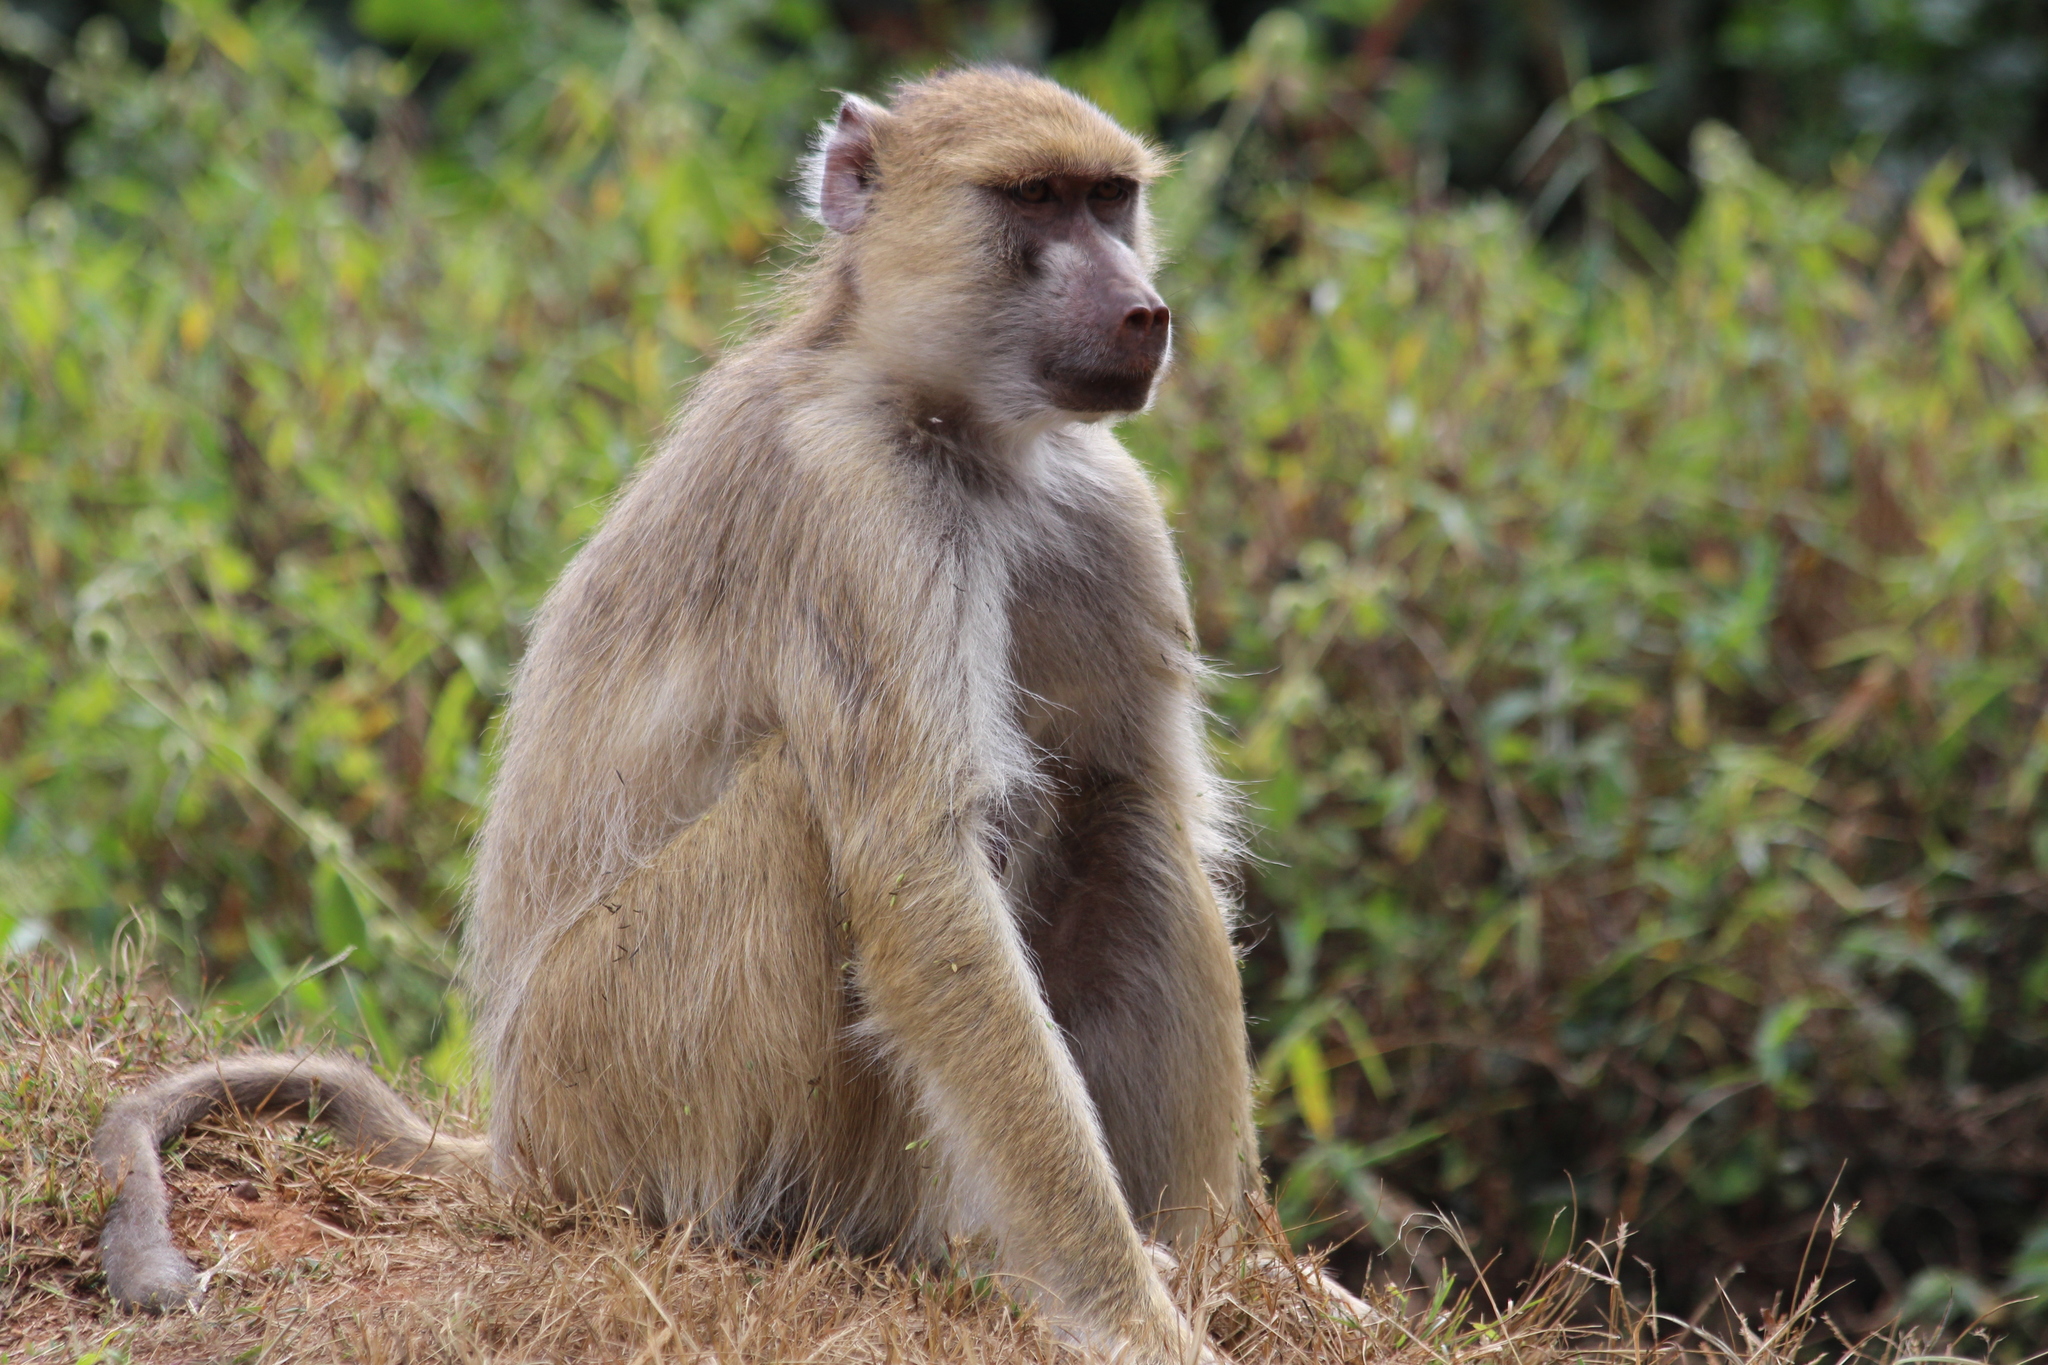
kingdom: Animalia
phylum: Chordata
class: Mammalia
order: Primates
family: Cercopithecidae
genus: Papio
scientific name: Papio cynocephalus
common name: Yellow baboon
